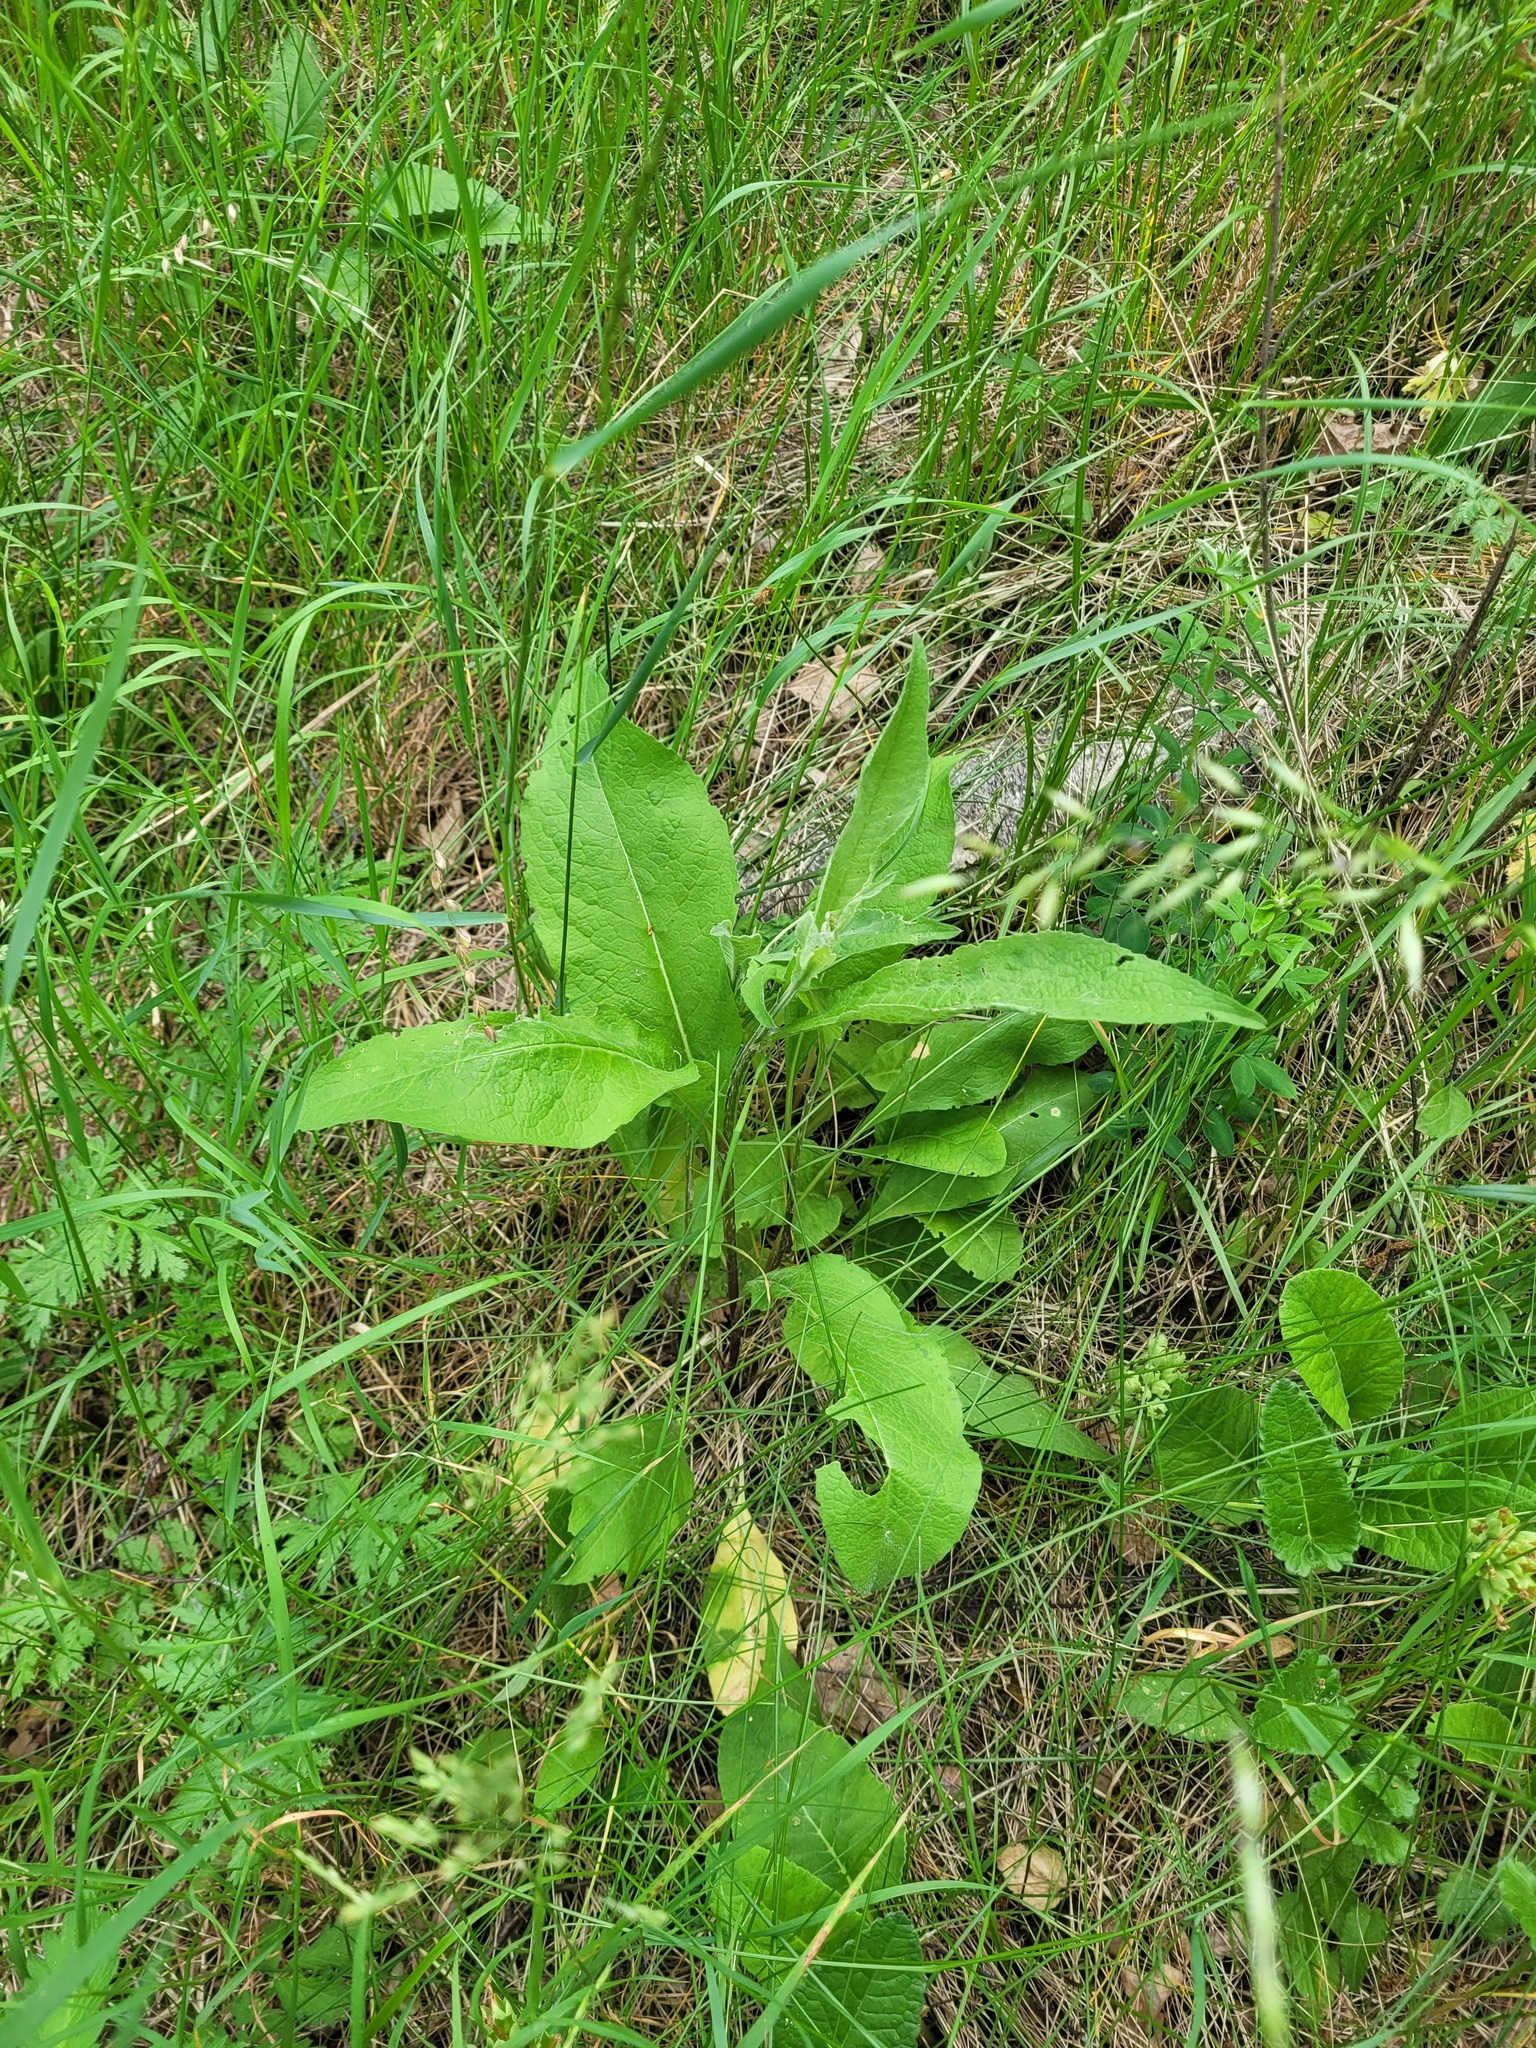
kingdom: Plantae
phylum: Tracheophyta
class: Magnoliopsida
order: Asterales
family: Asteraceae
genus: Centaurea
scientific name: Centaurea pseudophrygia
